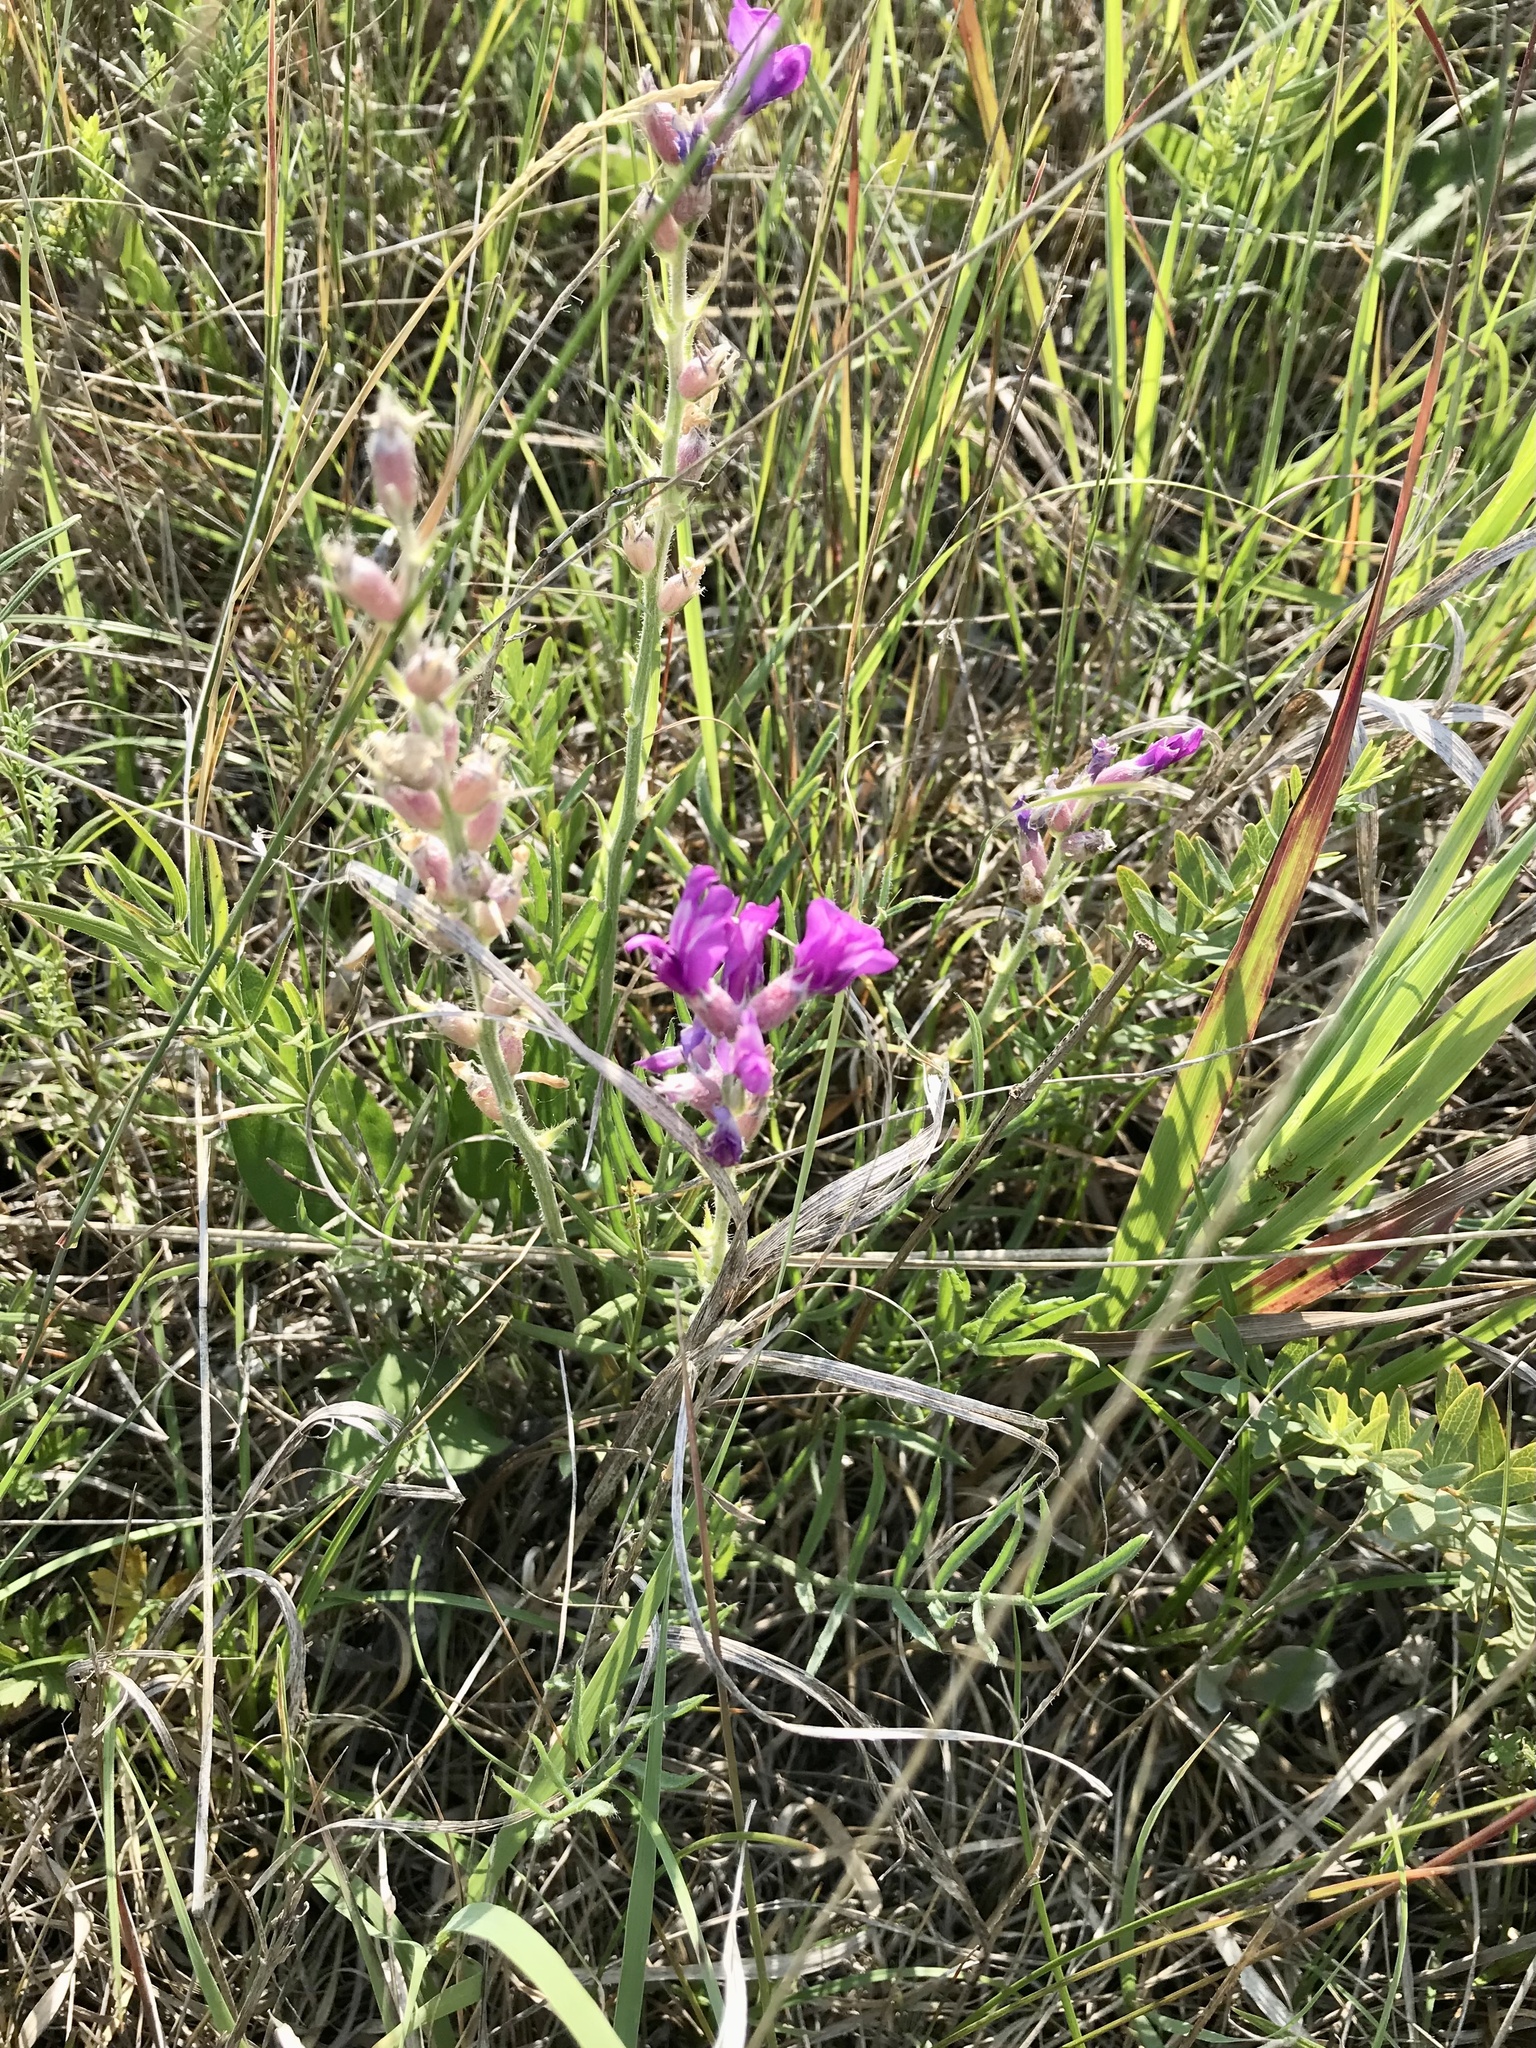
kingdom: Plantae
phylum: Tracheophyta
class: Magnoliopsida
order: Fabales
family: Fabaceae
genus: Oxytropis
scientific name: Oxytropis lambertii
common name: Purple locoweed
